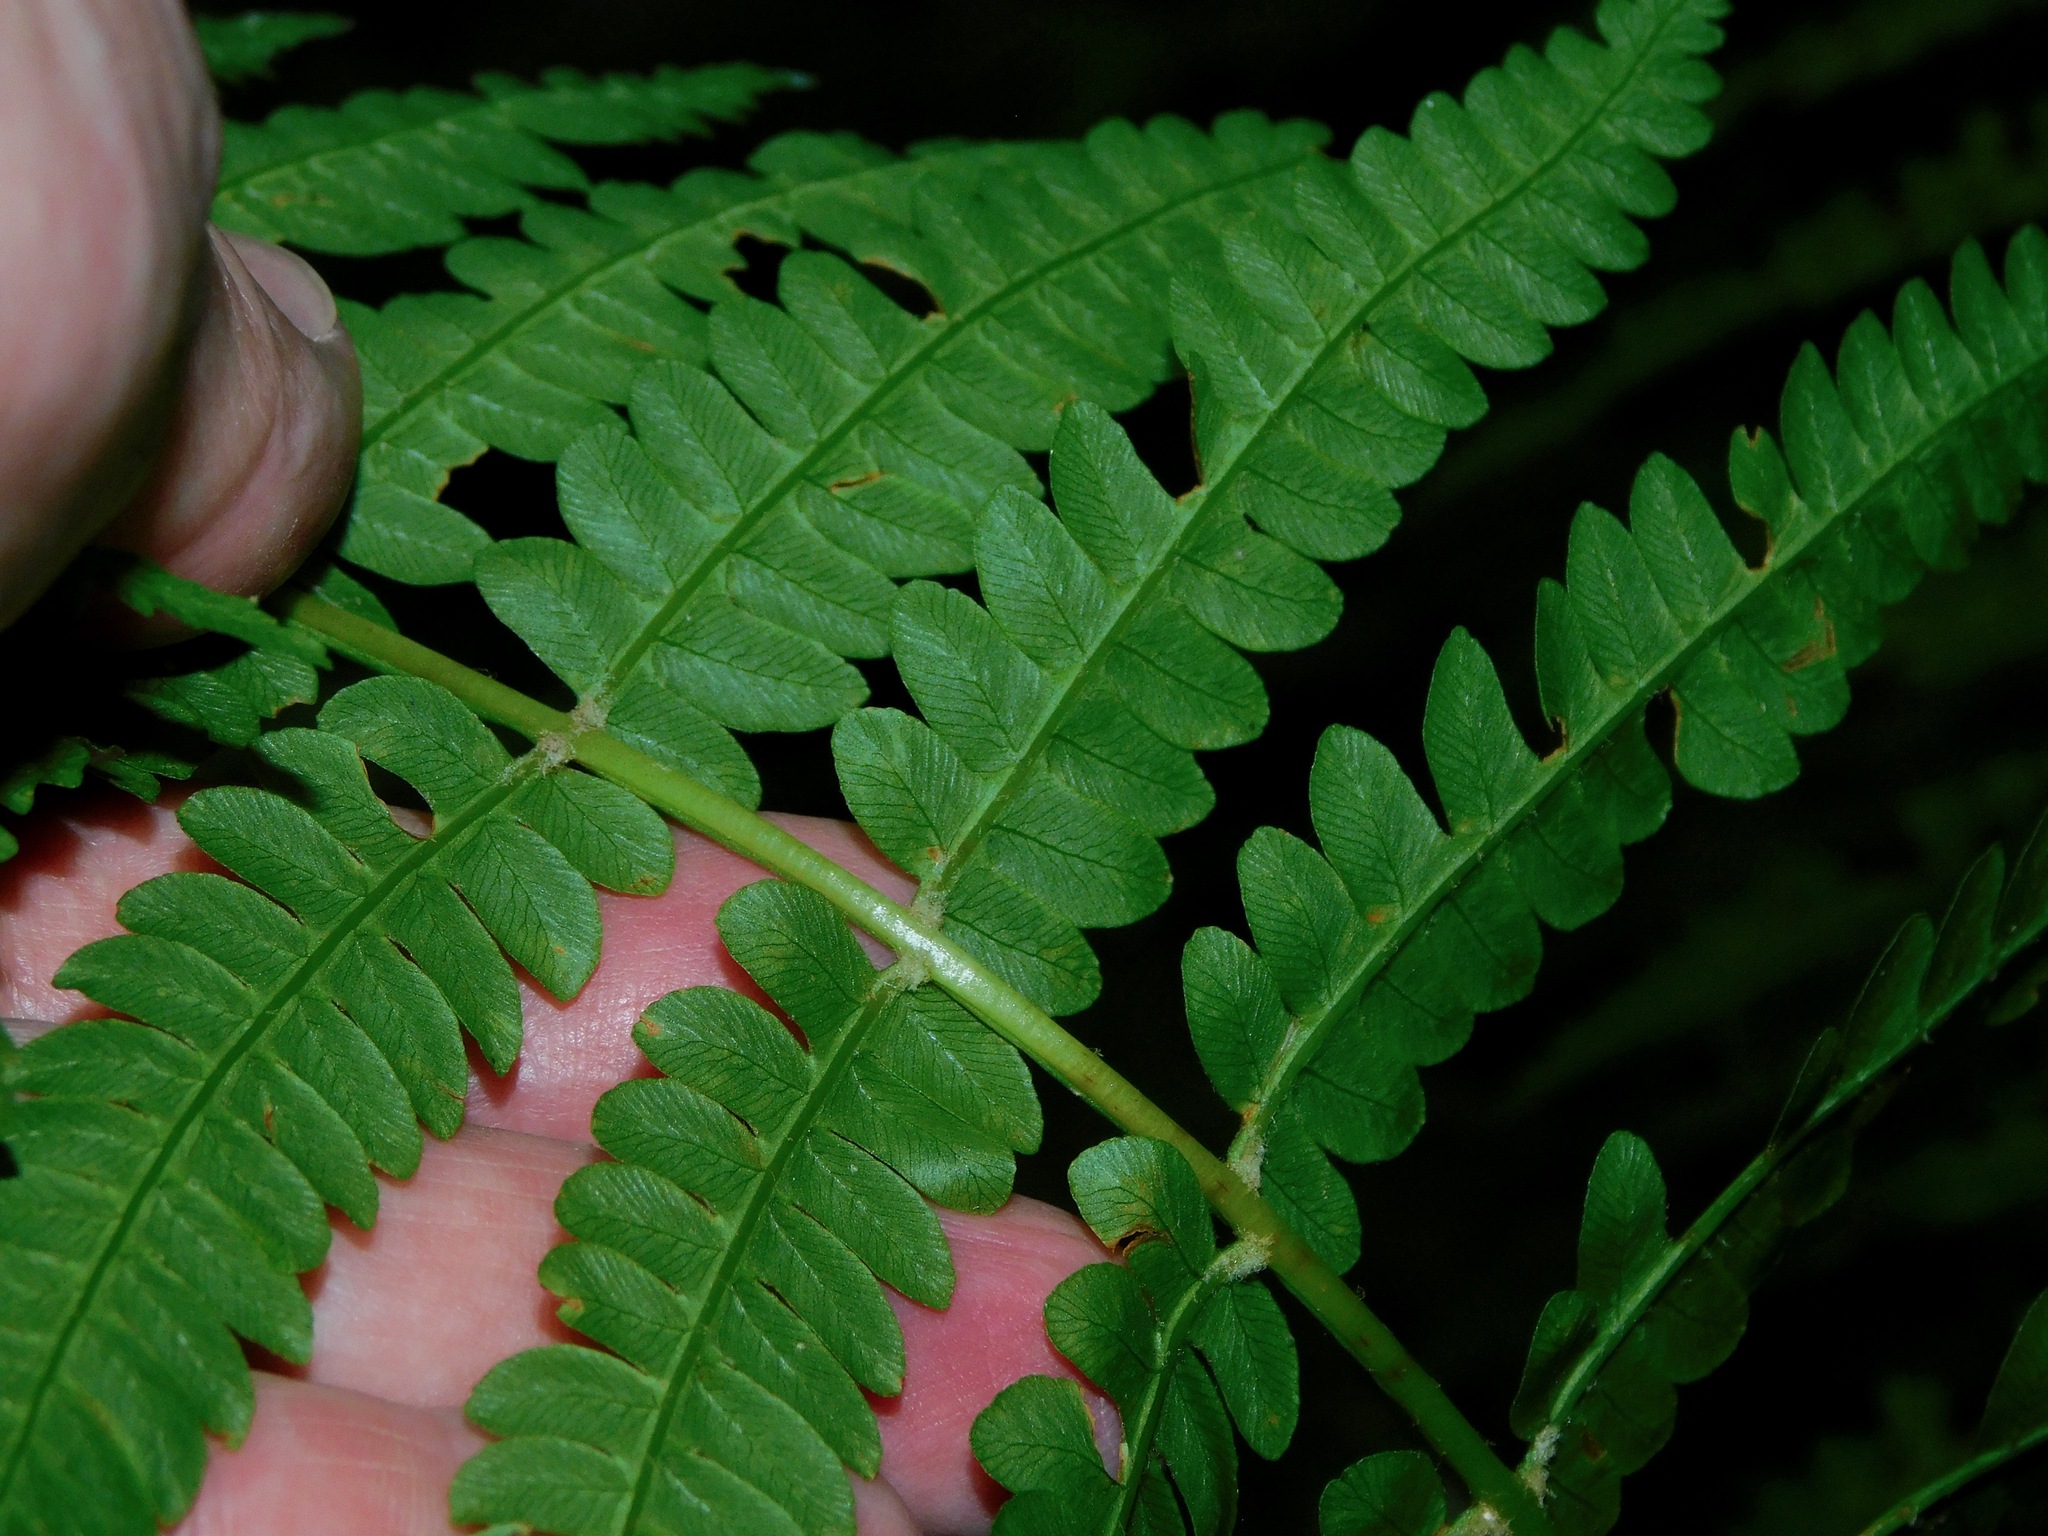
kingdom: Plantae
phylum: Tracheophyta
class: Polypodiopsida
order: Osmundales
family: Osmundaceae
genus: Osmundastrum
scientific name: Osmundastrum cinnamomeum
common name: Cinnamon fern
